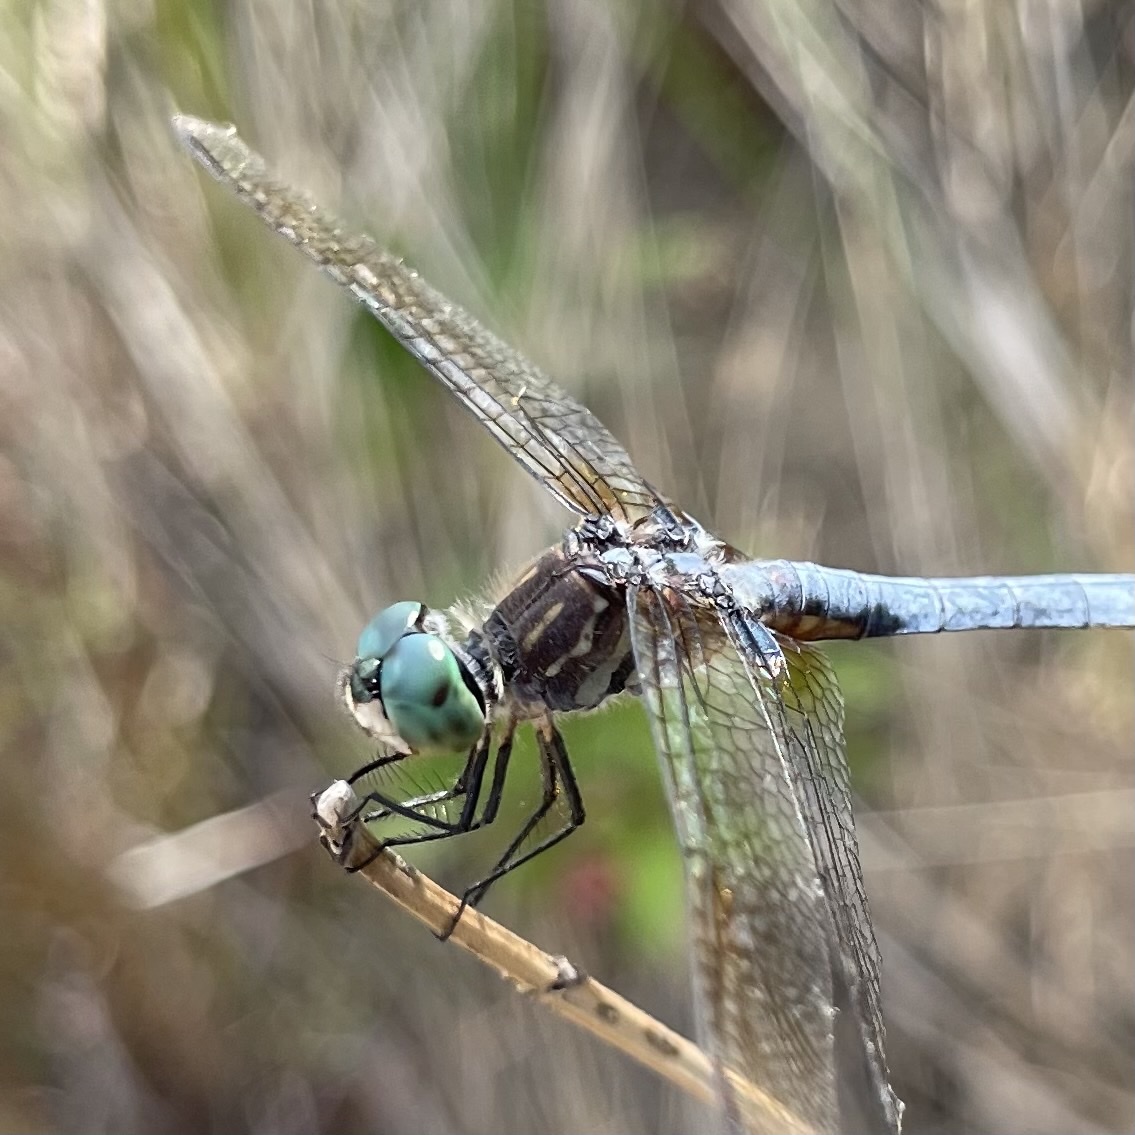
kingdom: Animalia
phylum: Arthropoda
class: Insecta
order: Odonata
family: Libellulidae
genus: Pachydiplax
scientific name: Pachydiplax longipennis
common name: Blue dasher
